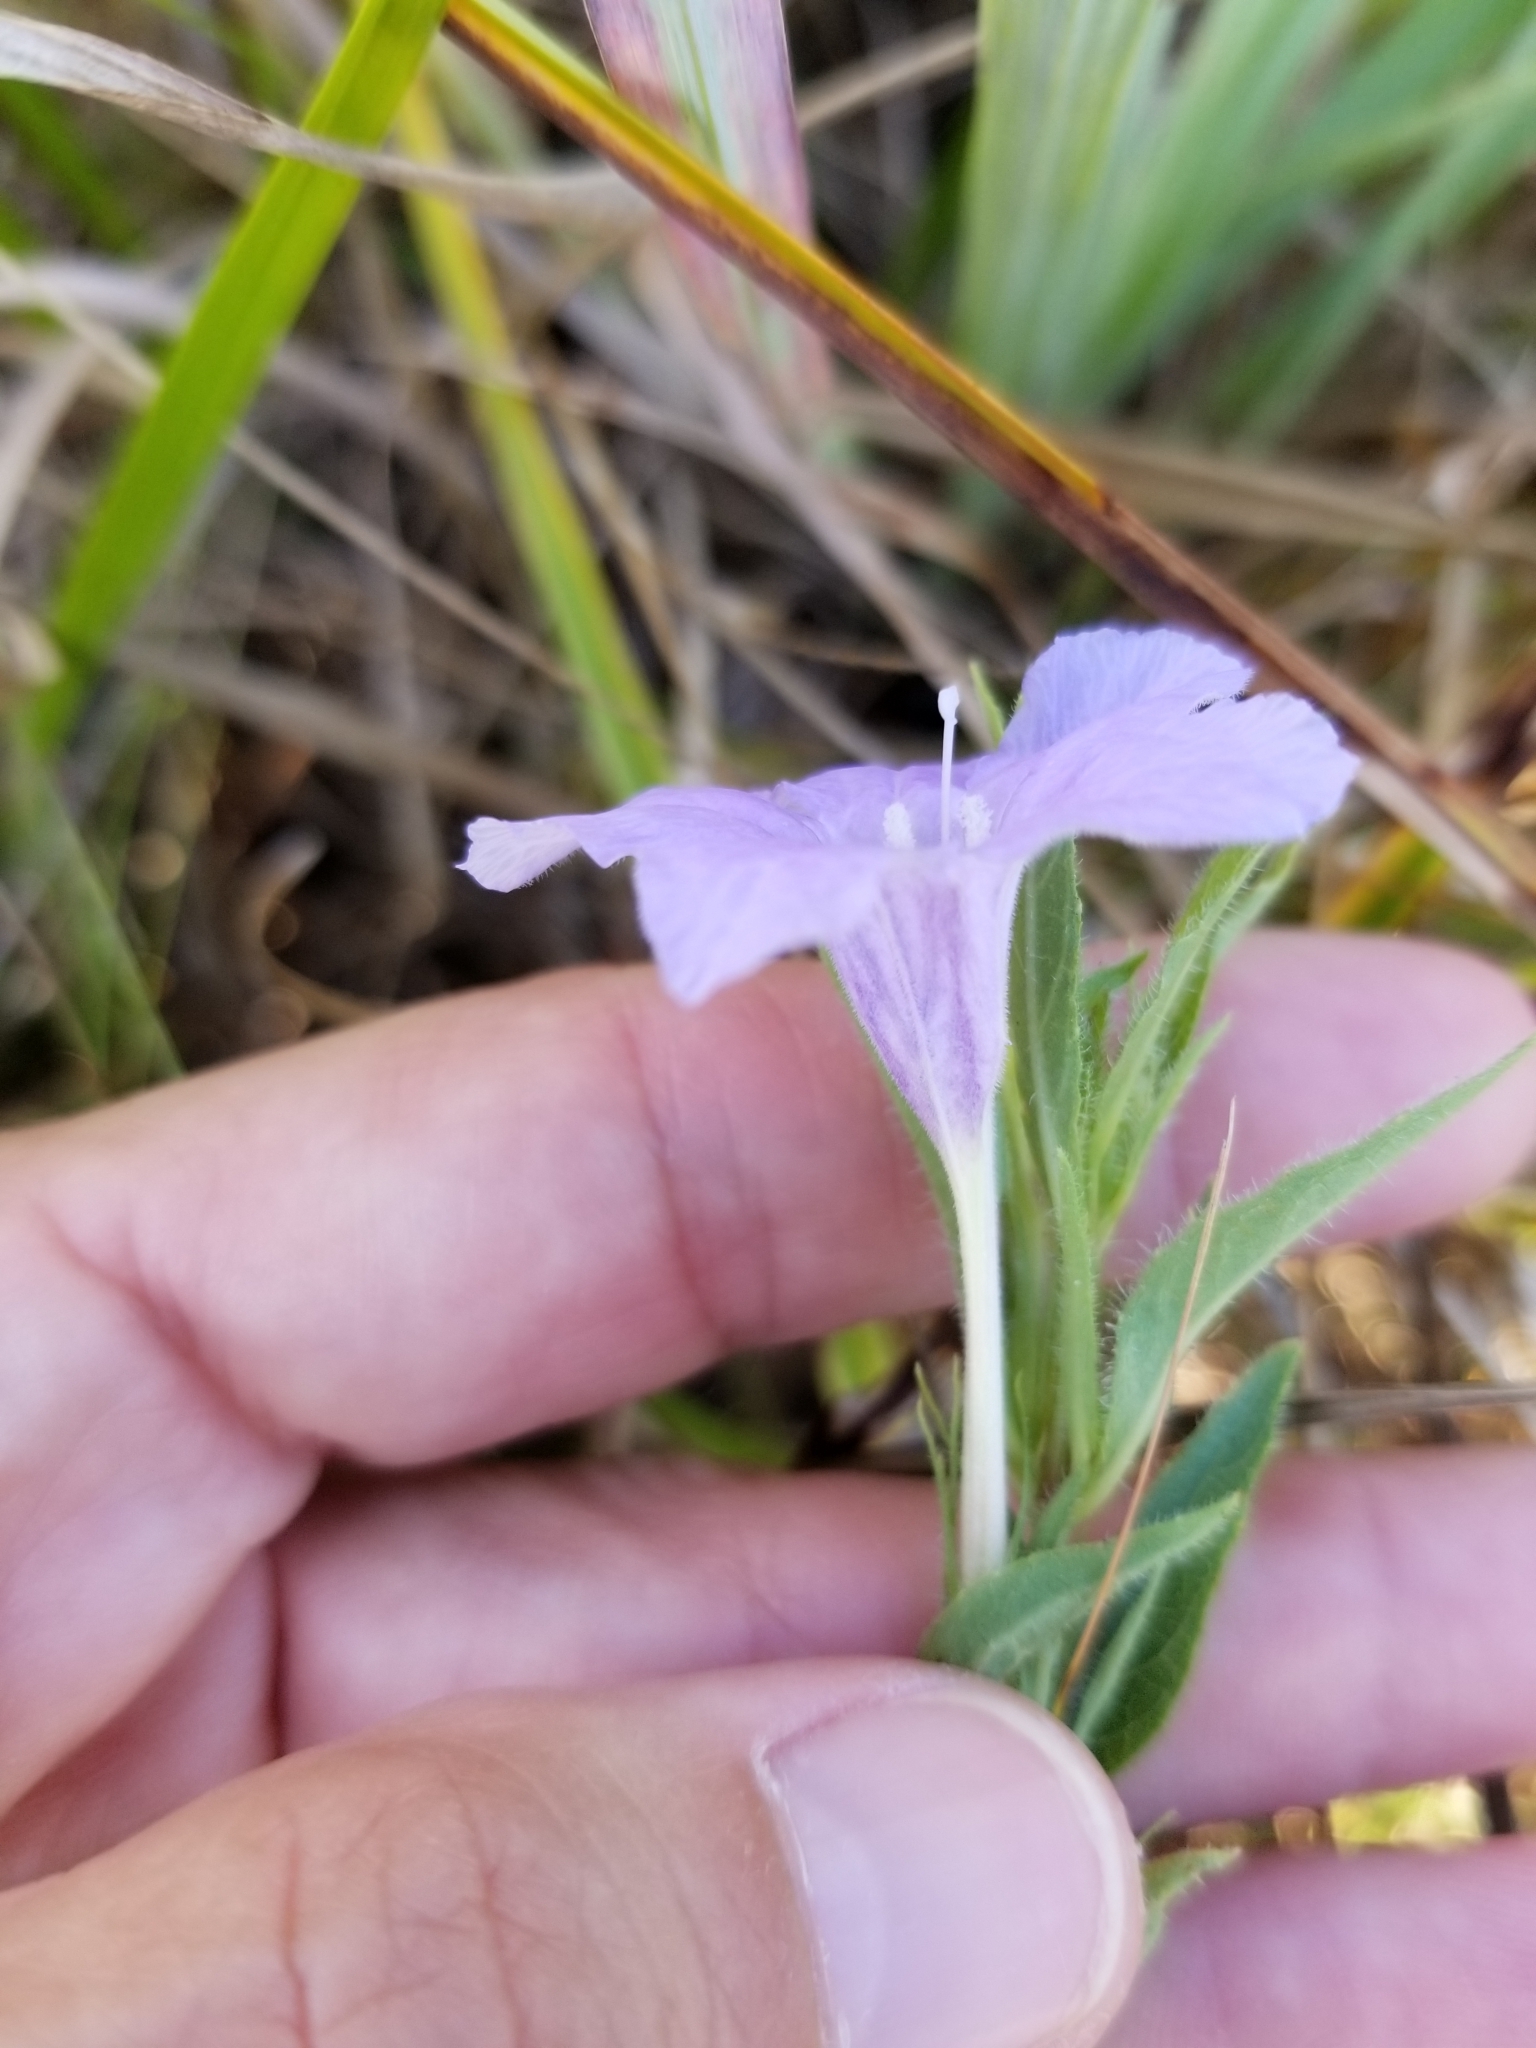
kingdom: Plantae
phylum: Tracheophyta
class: Magnoliopsida
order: Lamiales
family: Acanthaceae
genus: Ruellia
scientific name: Ruellia humilis
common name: Fringe-leaf ruellia
